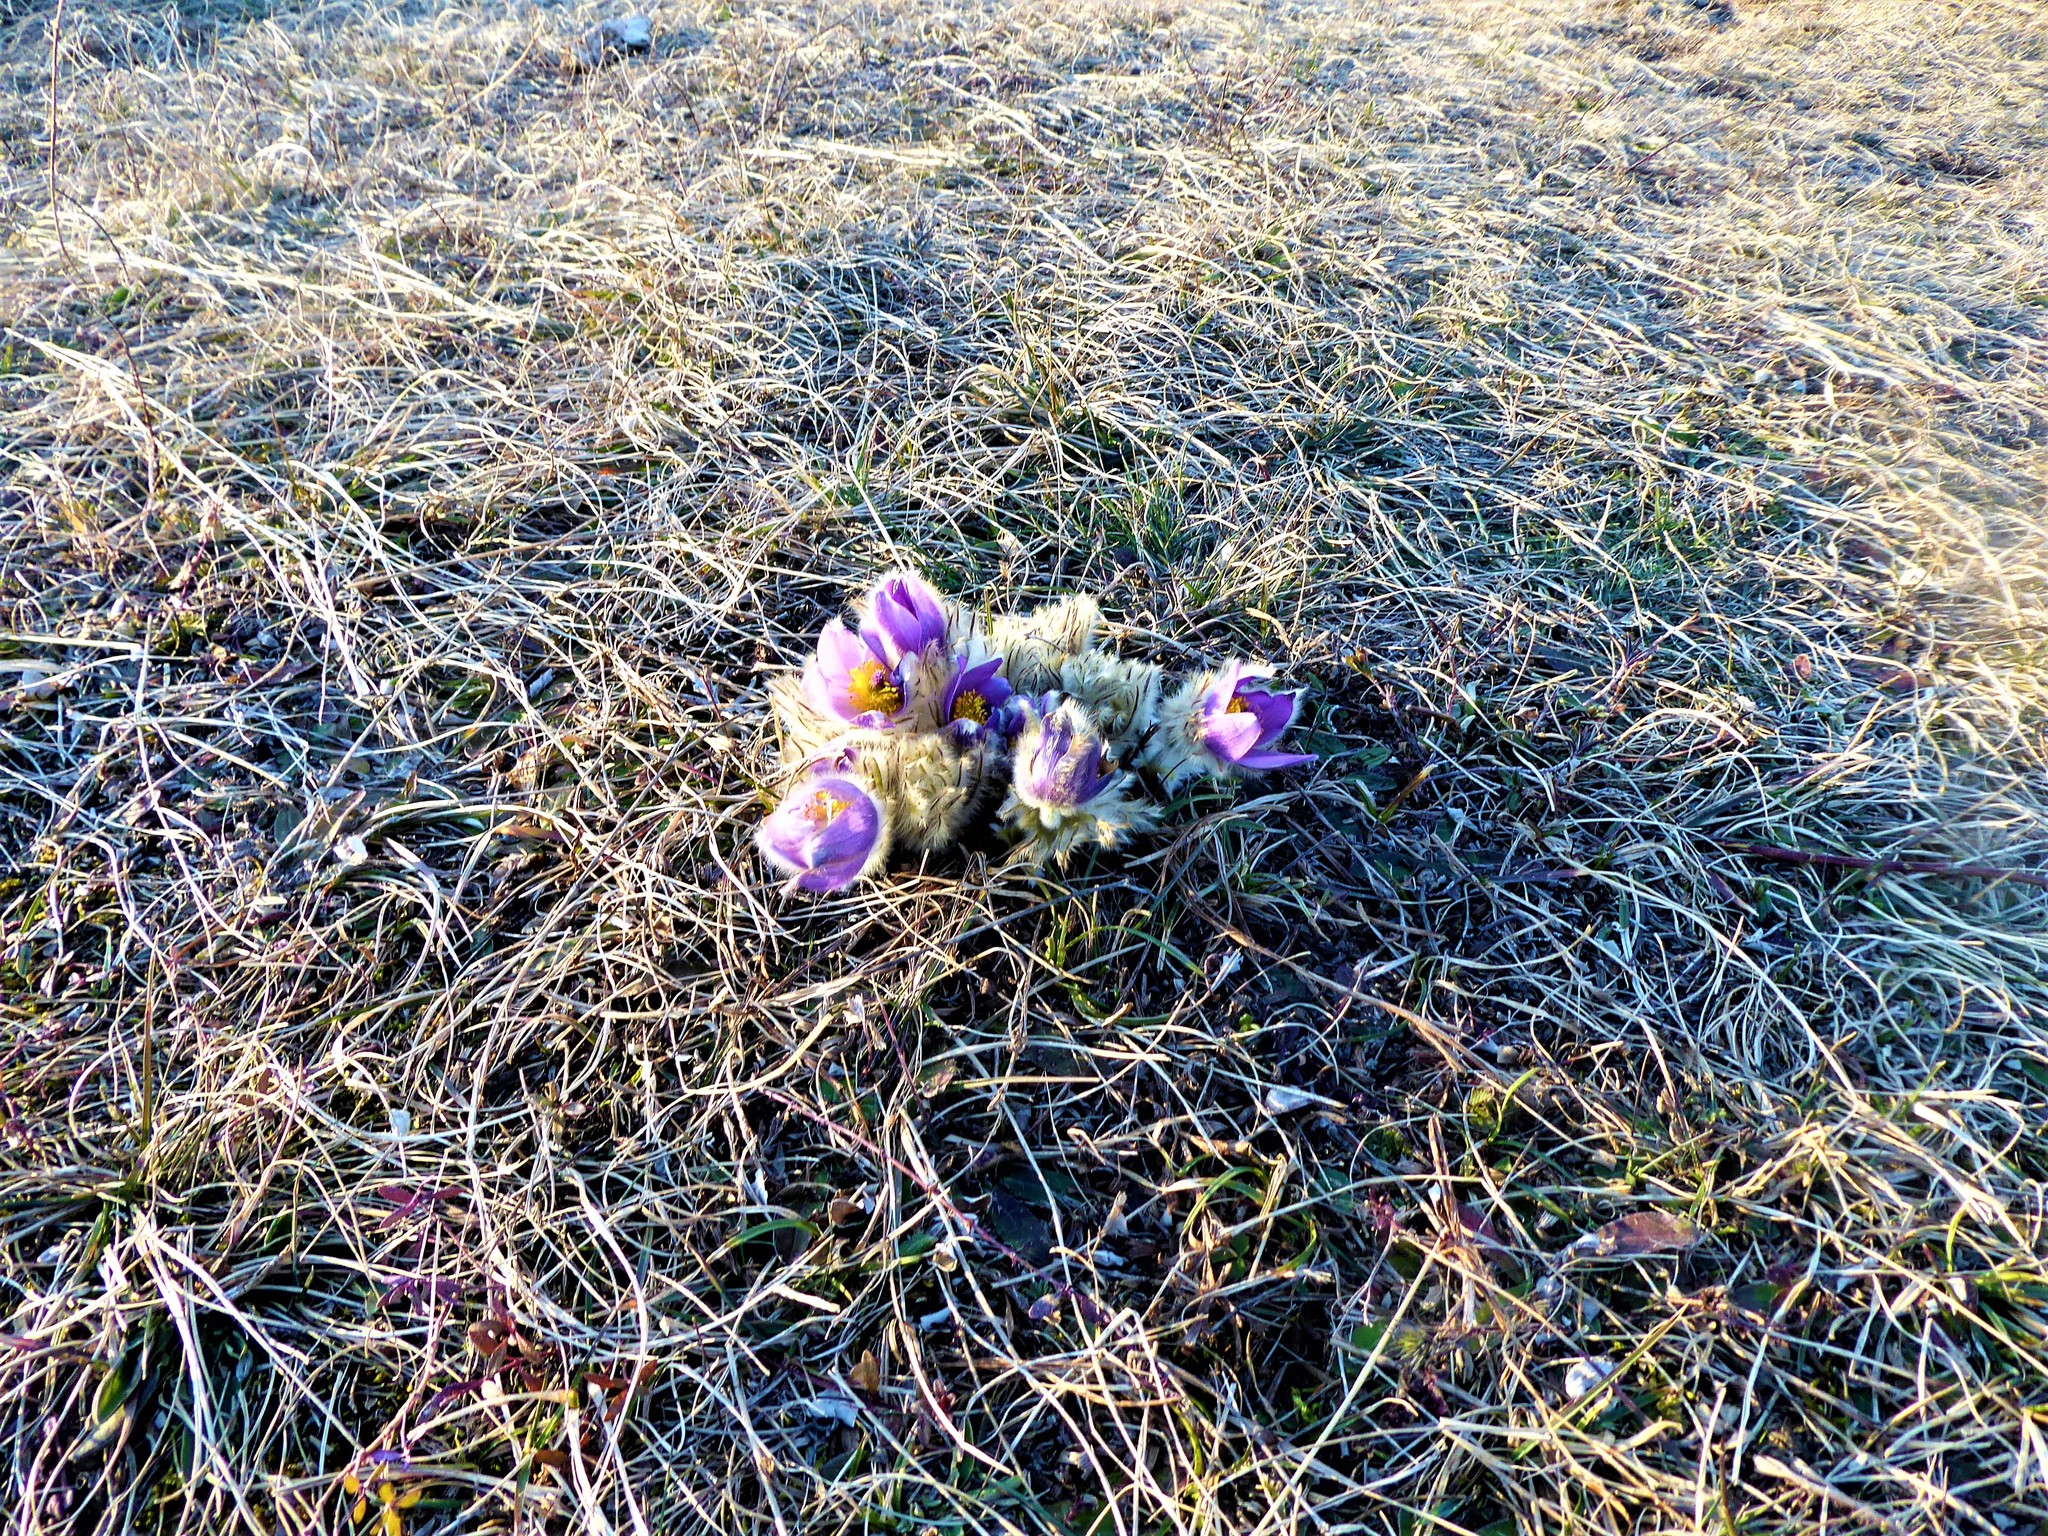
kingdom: Plantae
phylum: Tracheophyta
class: Magnoliopsida
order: Ranunculales
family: Ranunculaceae
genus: Pulsatilla
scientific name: Pulsatilla grandis
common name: Greater pasque flower
